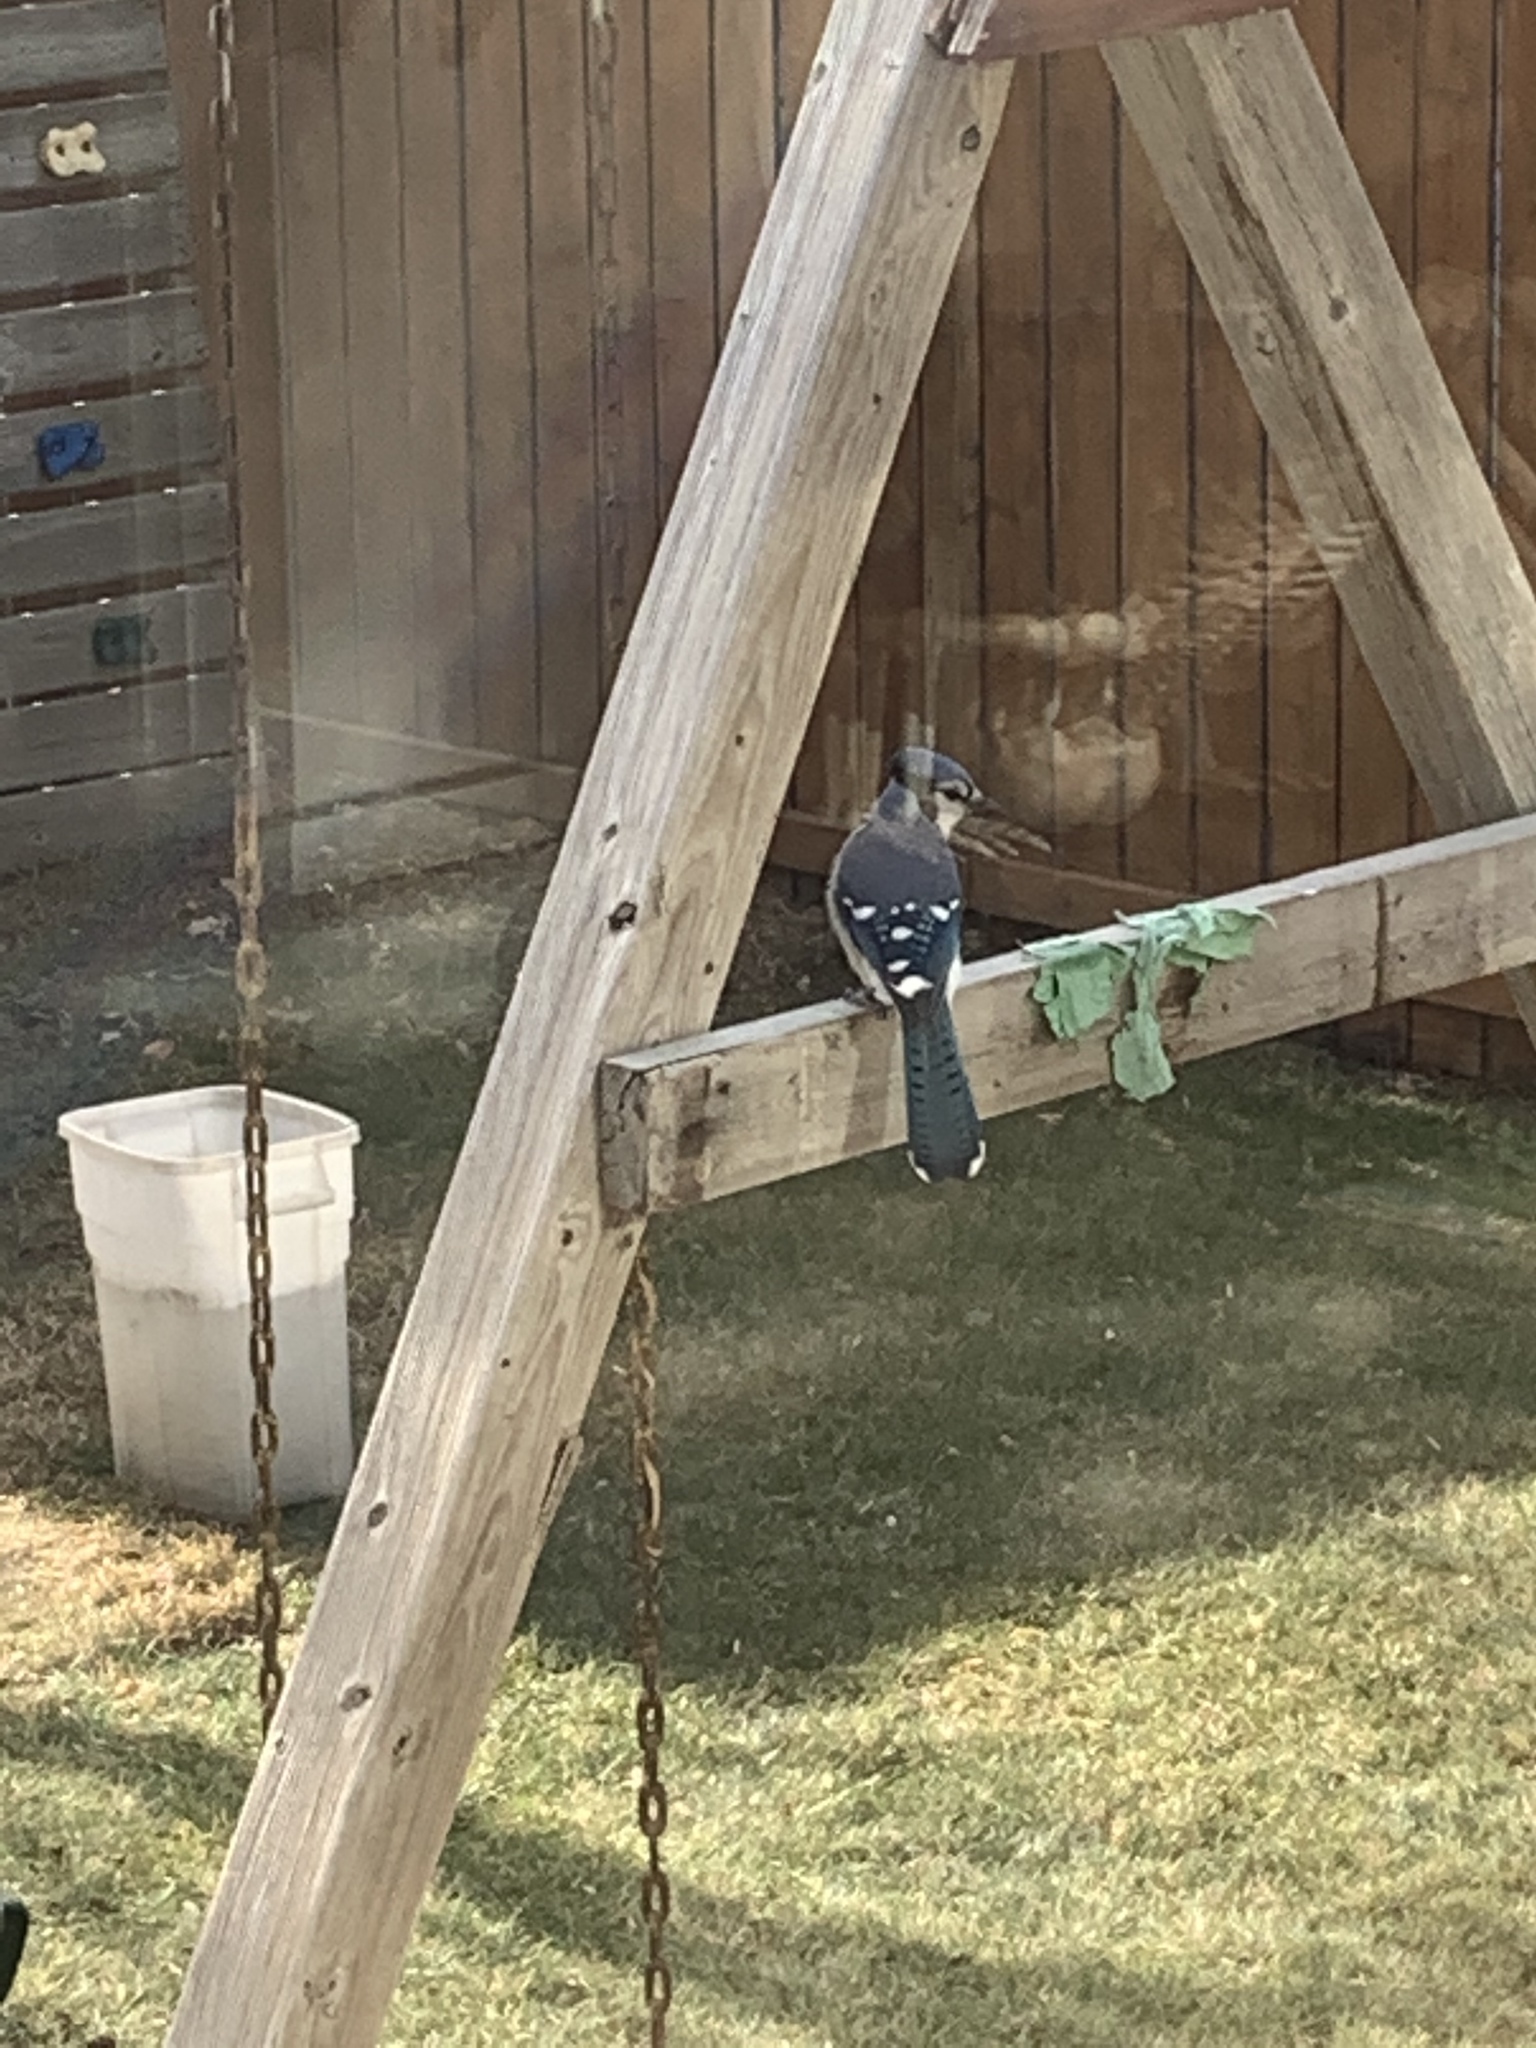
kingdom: Animalia
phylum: Chordata
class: Aves
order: Passeriformes
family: Corvidae
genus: Cyanocitta
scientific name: Cyanocitta cristata
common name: Blue jay
